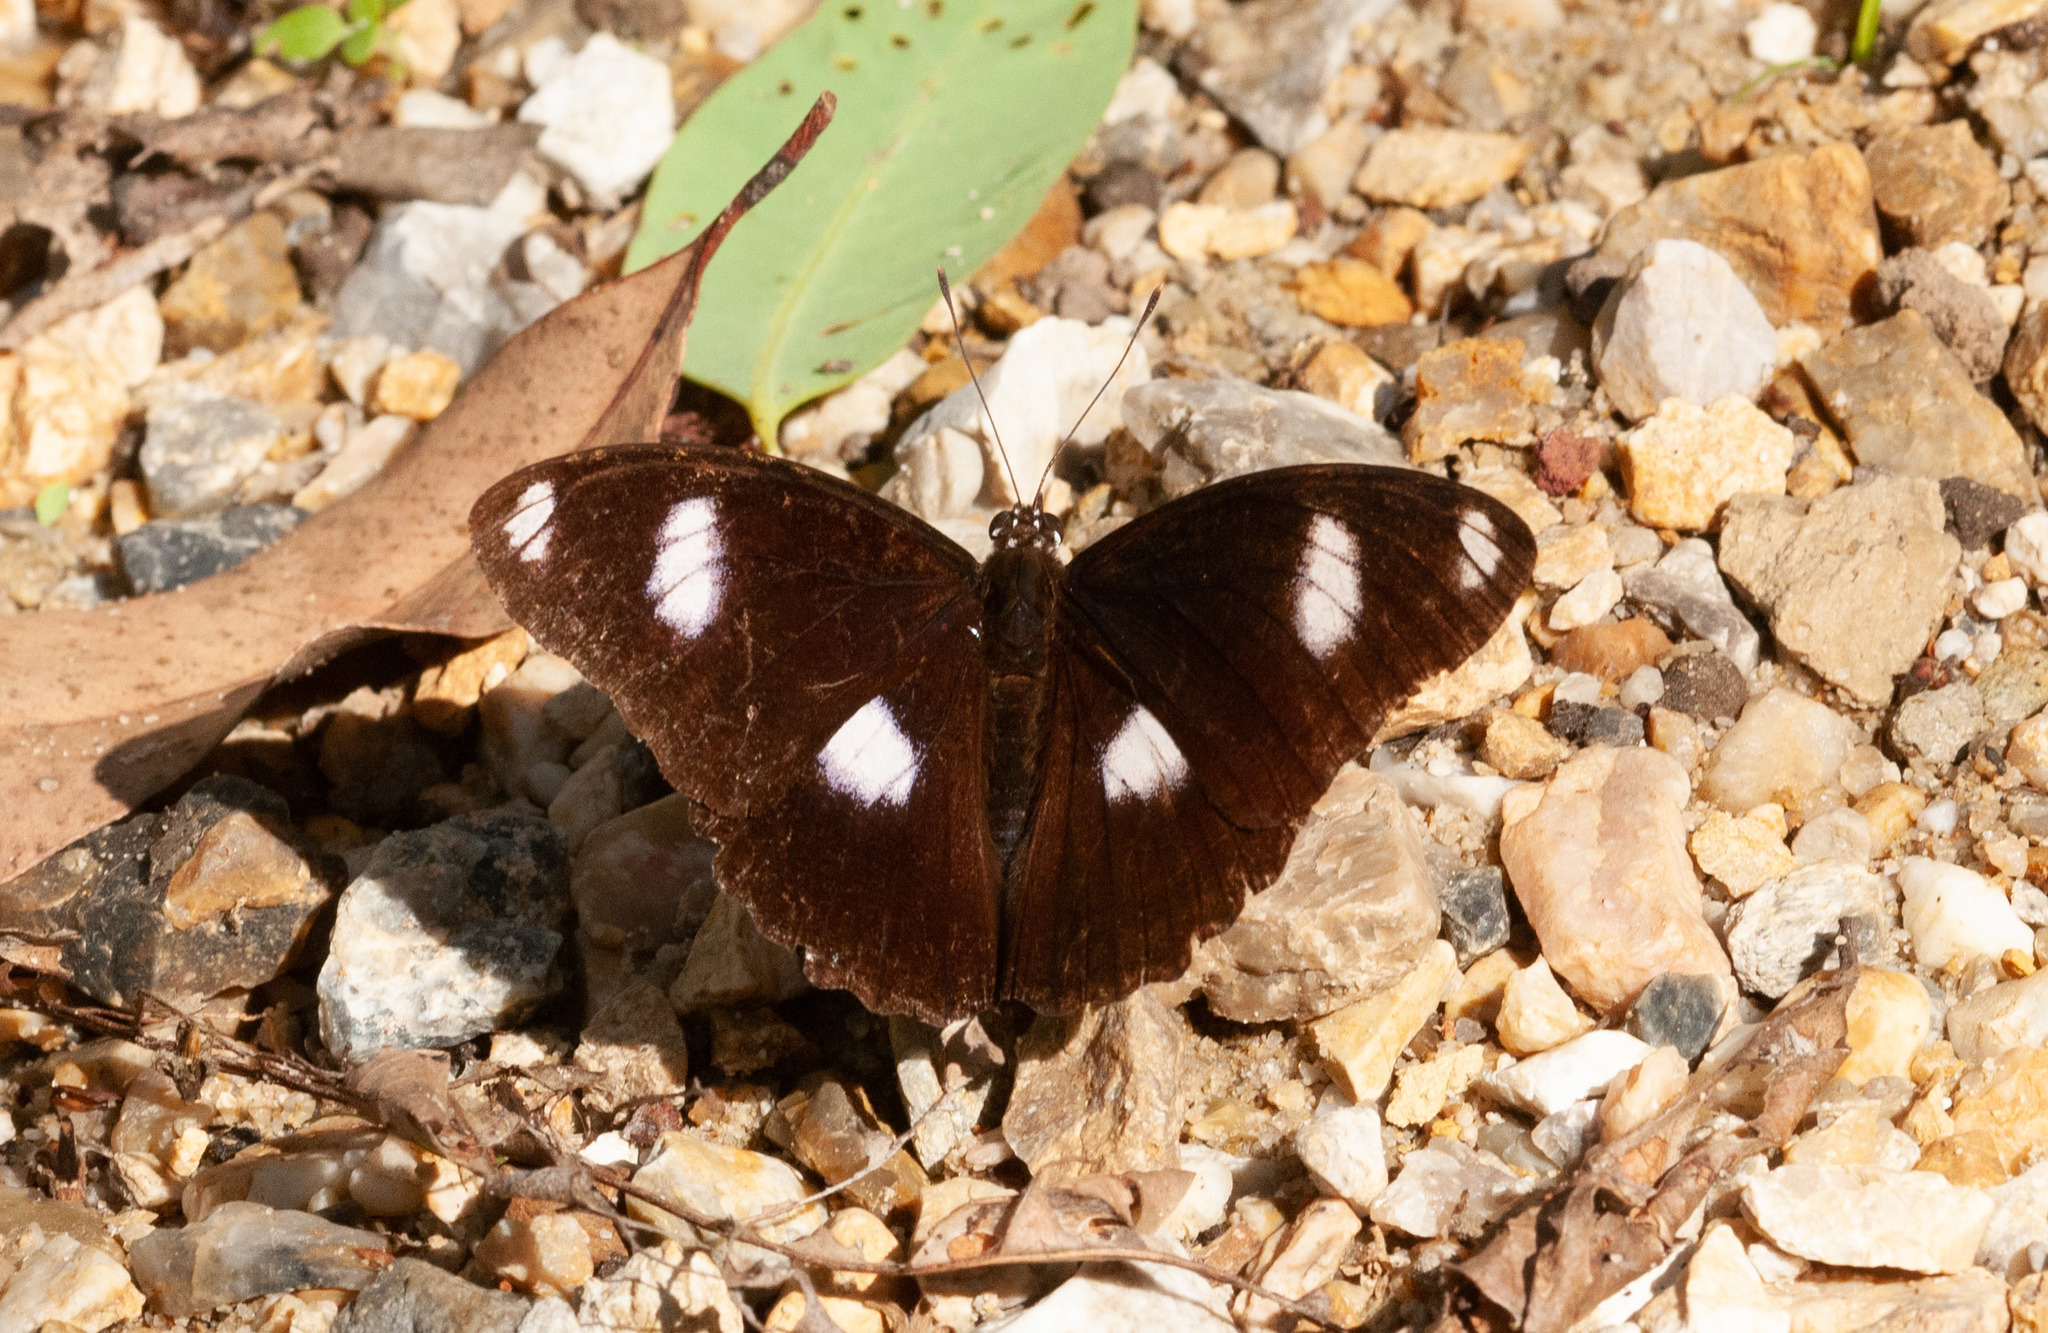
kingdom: Animalia
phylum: Arthropoda
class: Insecta
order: Lepidoptera
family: Nymphalidae
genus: Hypolimnas
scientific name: Hypolimnas bolina
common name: Great eggfly
